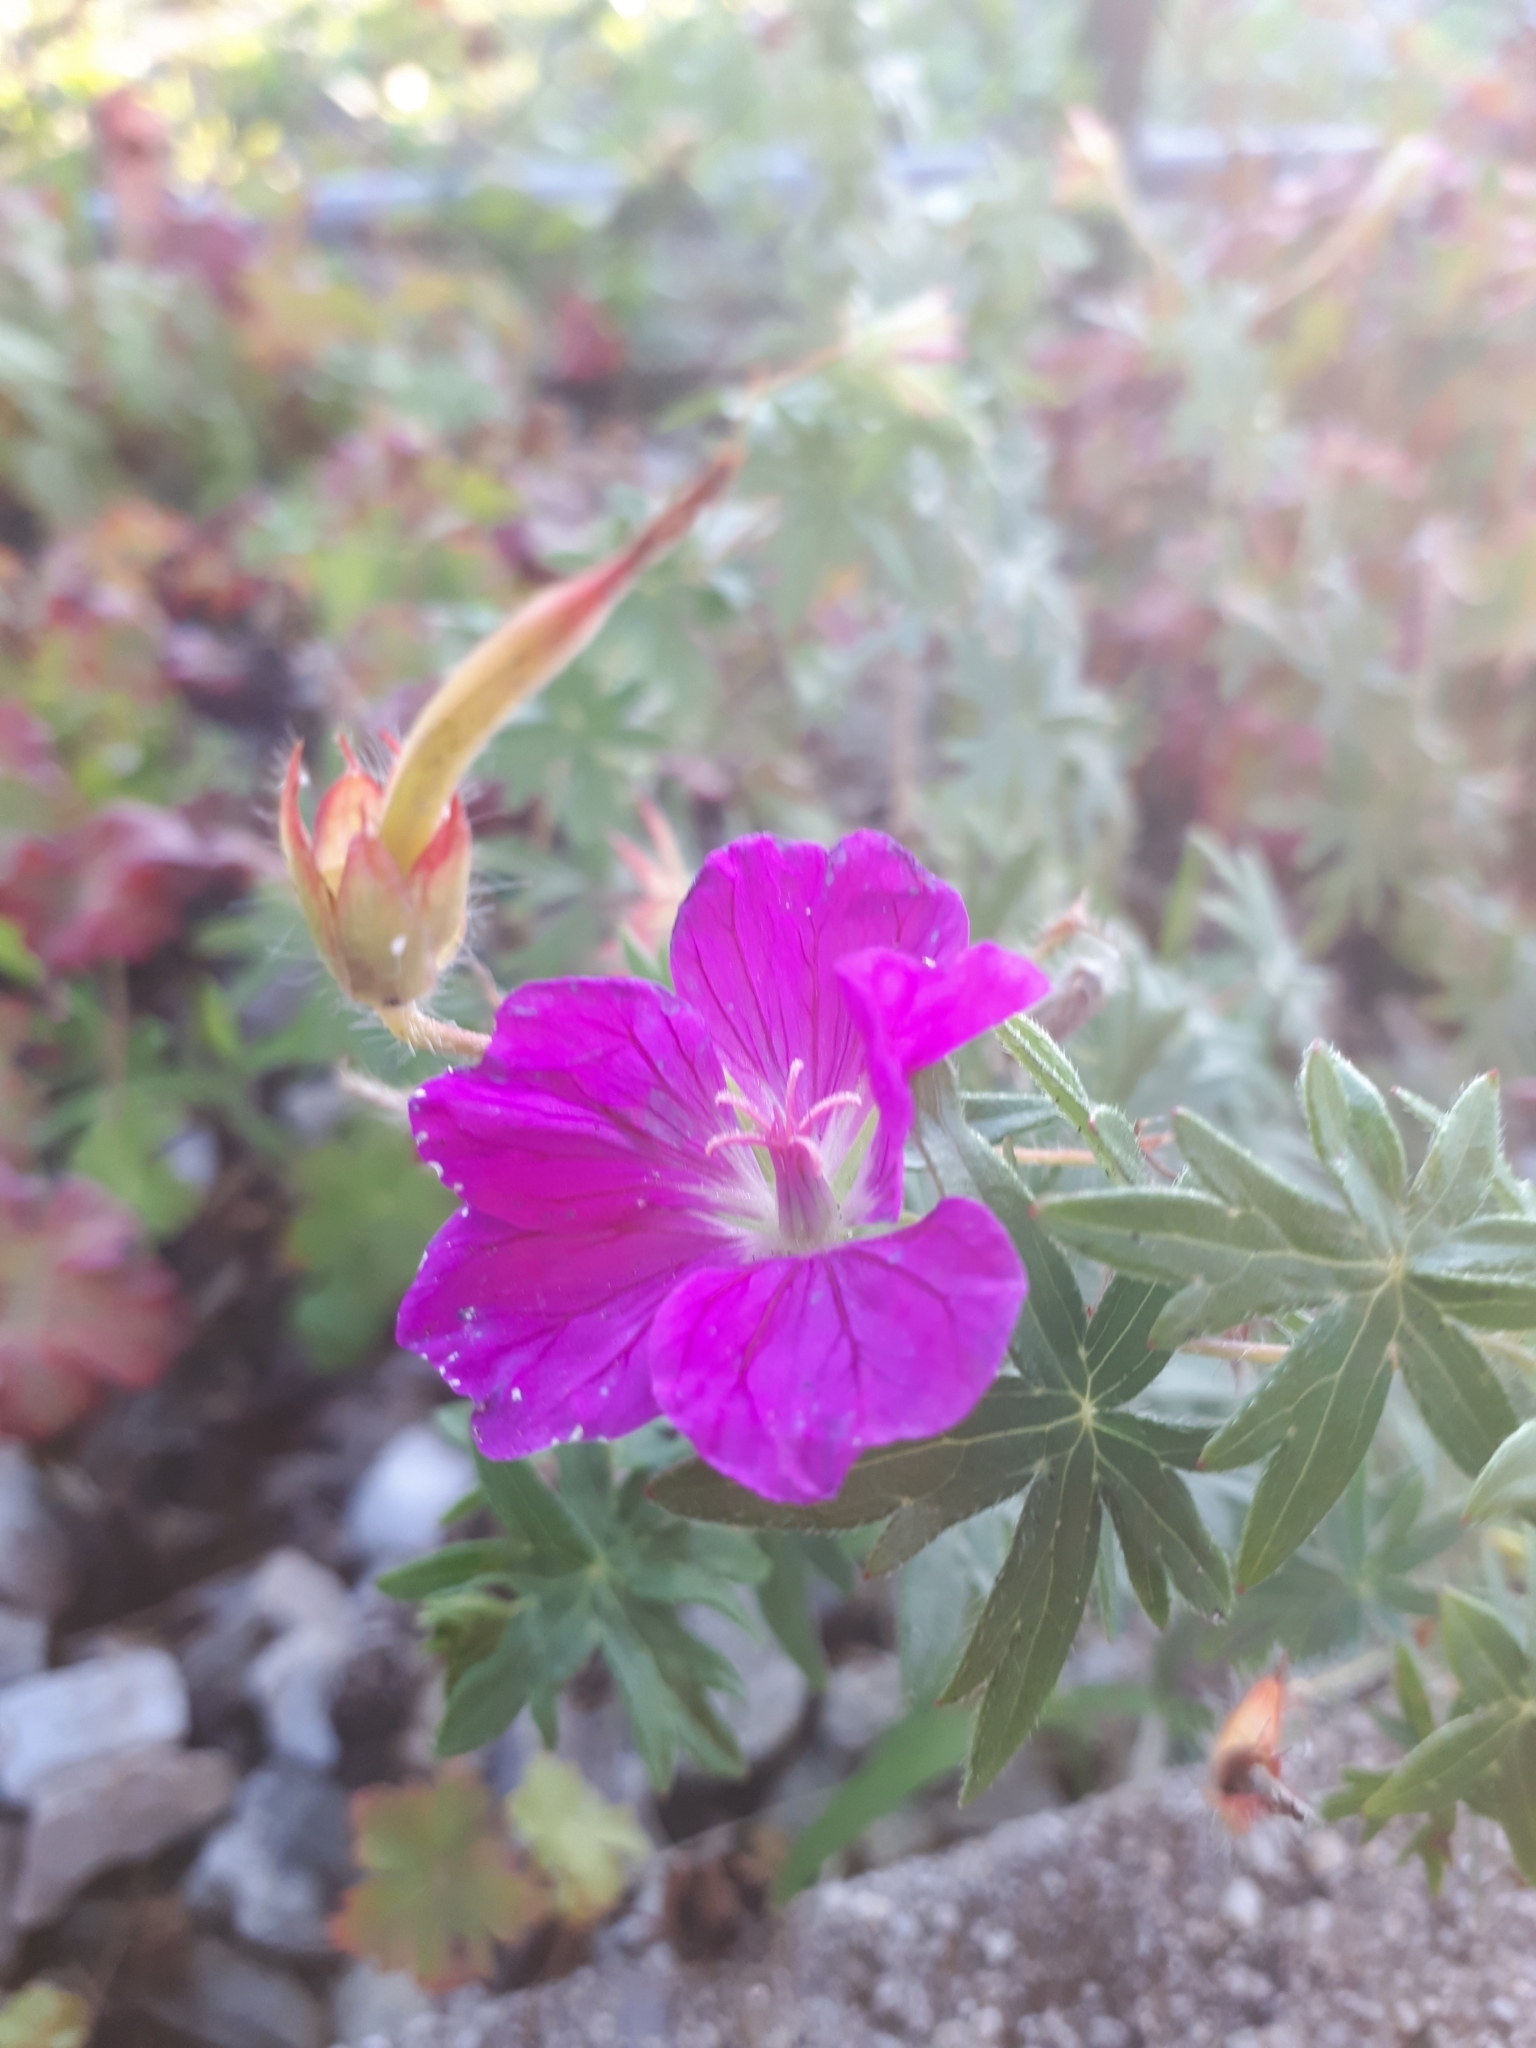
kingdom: Plantae
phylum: Tracheophyta
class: Magnoliopsida
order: Geraniales
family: Geraniaceae
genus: Geranium
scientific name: Geranium sanguineum
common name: Bloody crane's-bill
